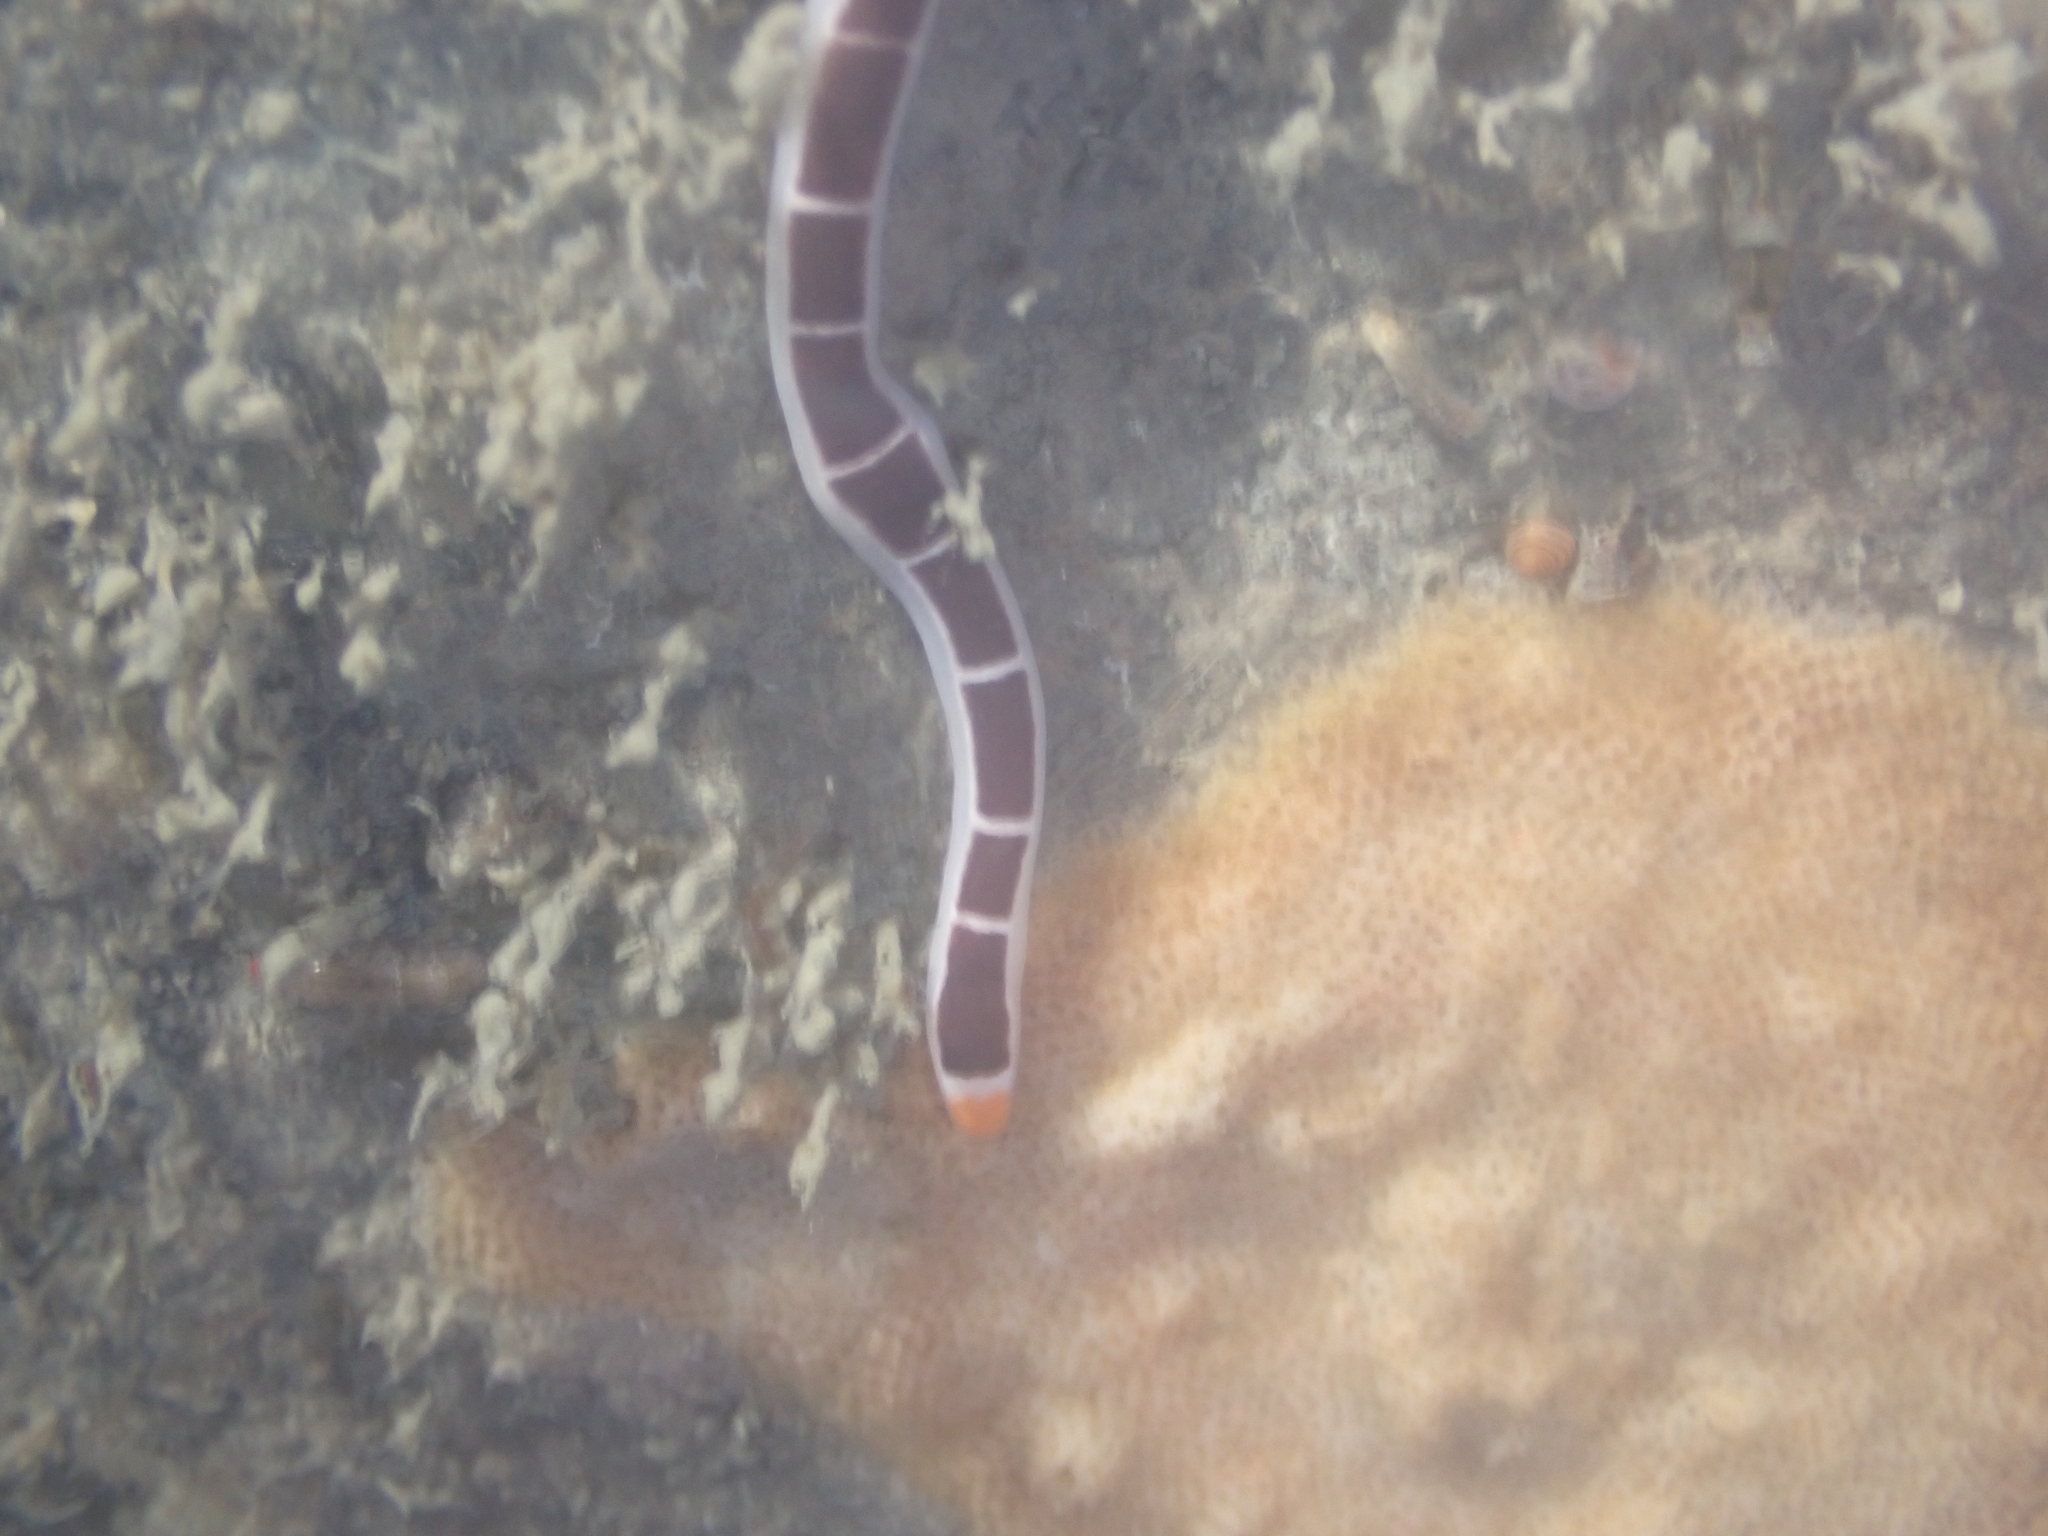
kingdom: Animalia
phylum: Nemertea
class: Pilidiophora
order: Heteronemertea
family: Lineidae
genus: Micrura
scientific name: Micrura verrilli
